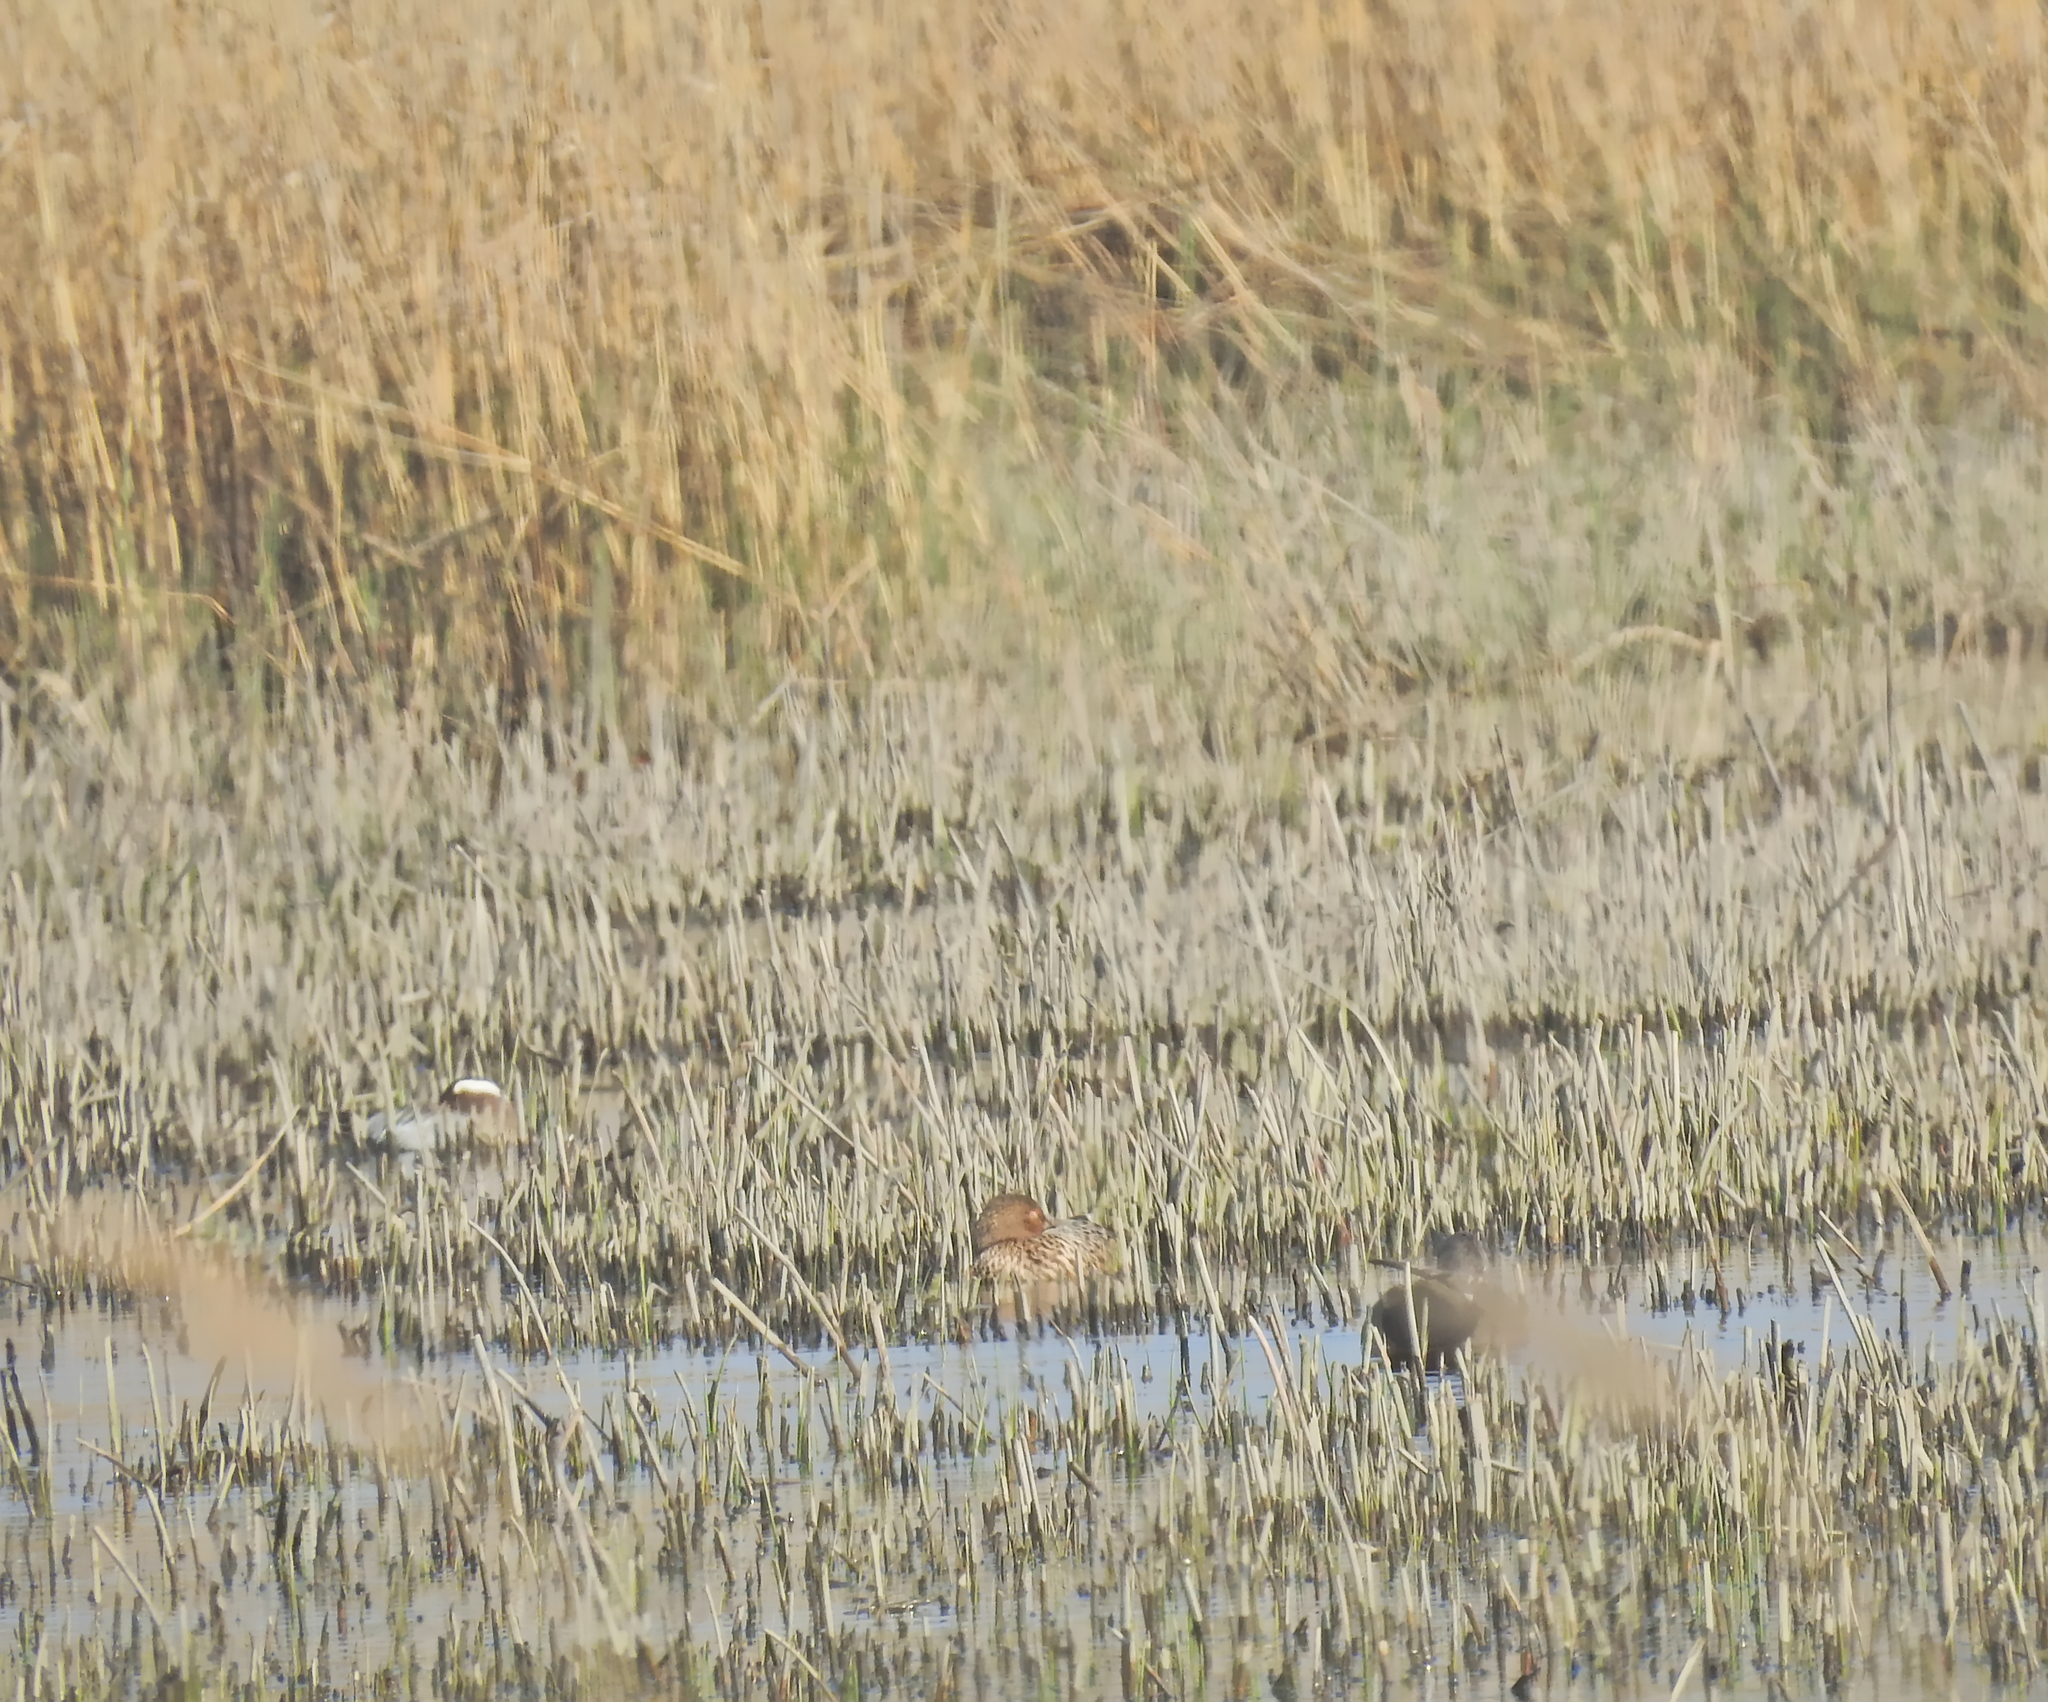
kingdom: Animalia
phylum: Chordata
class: Aves
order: Anseriformes
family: Anatidae
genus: Spatula
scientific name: Spatula querquedula
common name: Garganey
